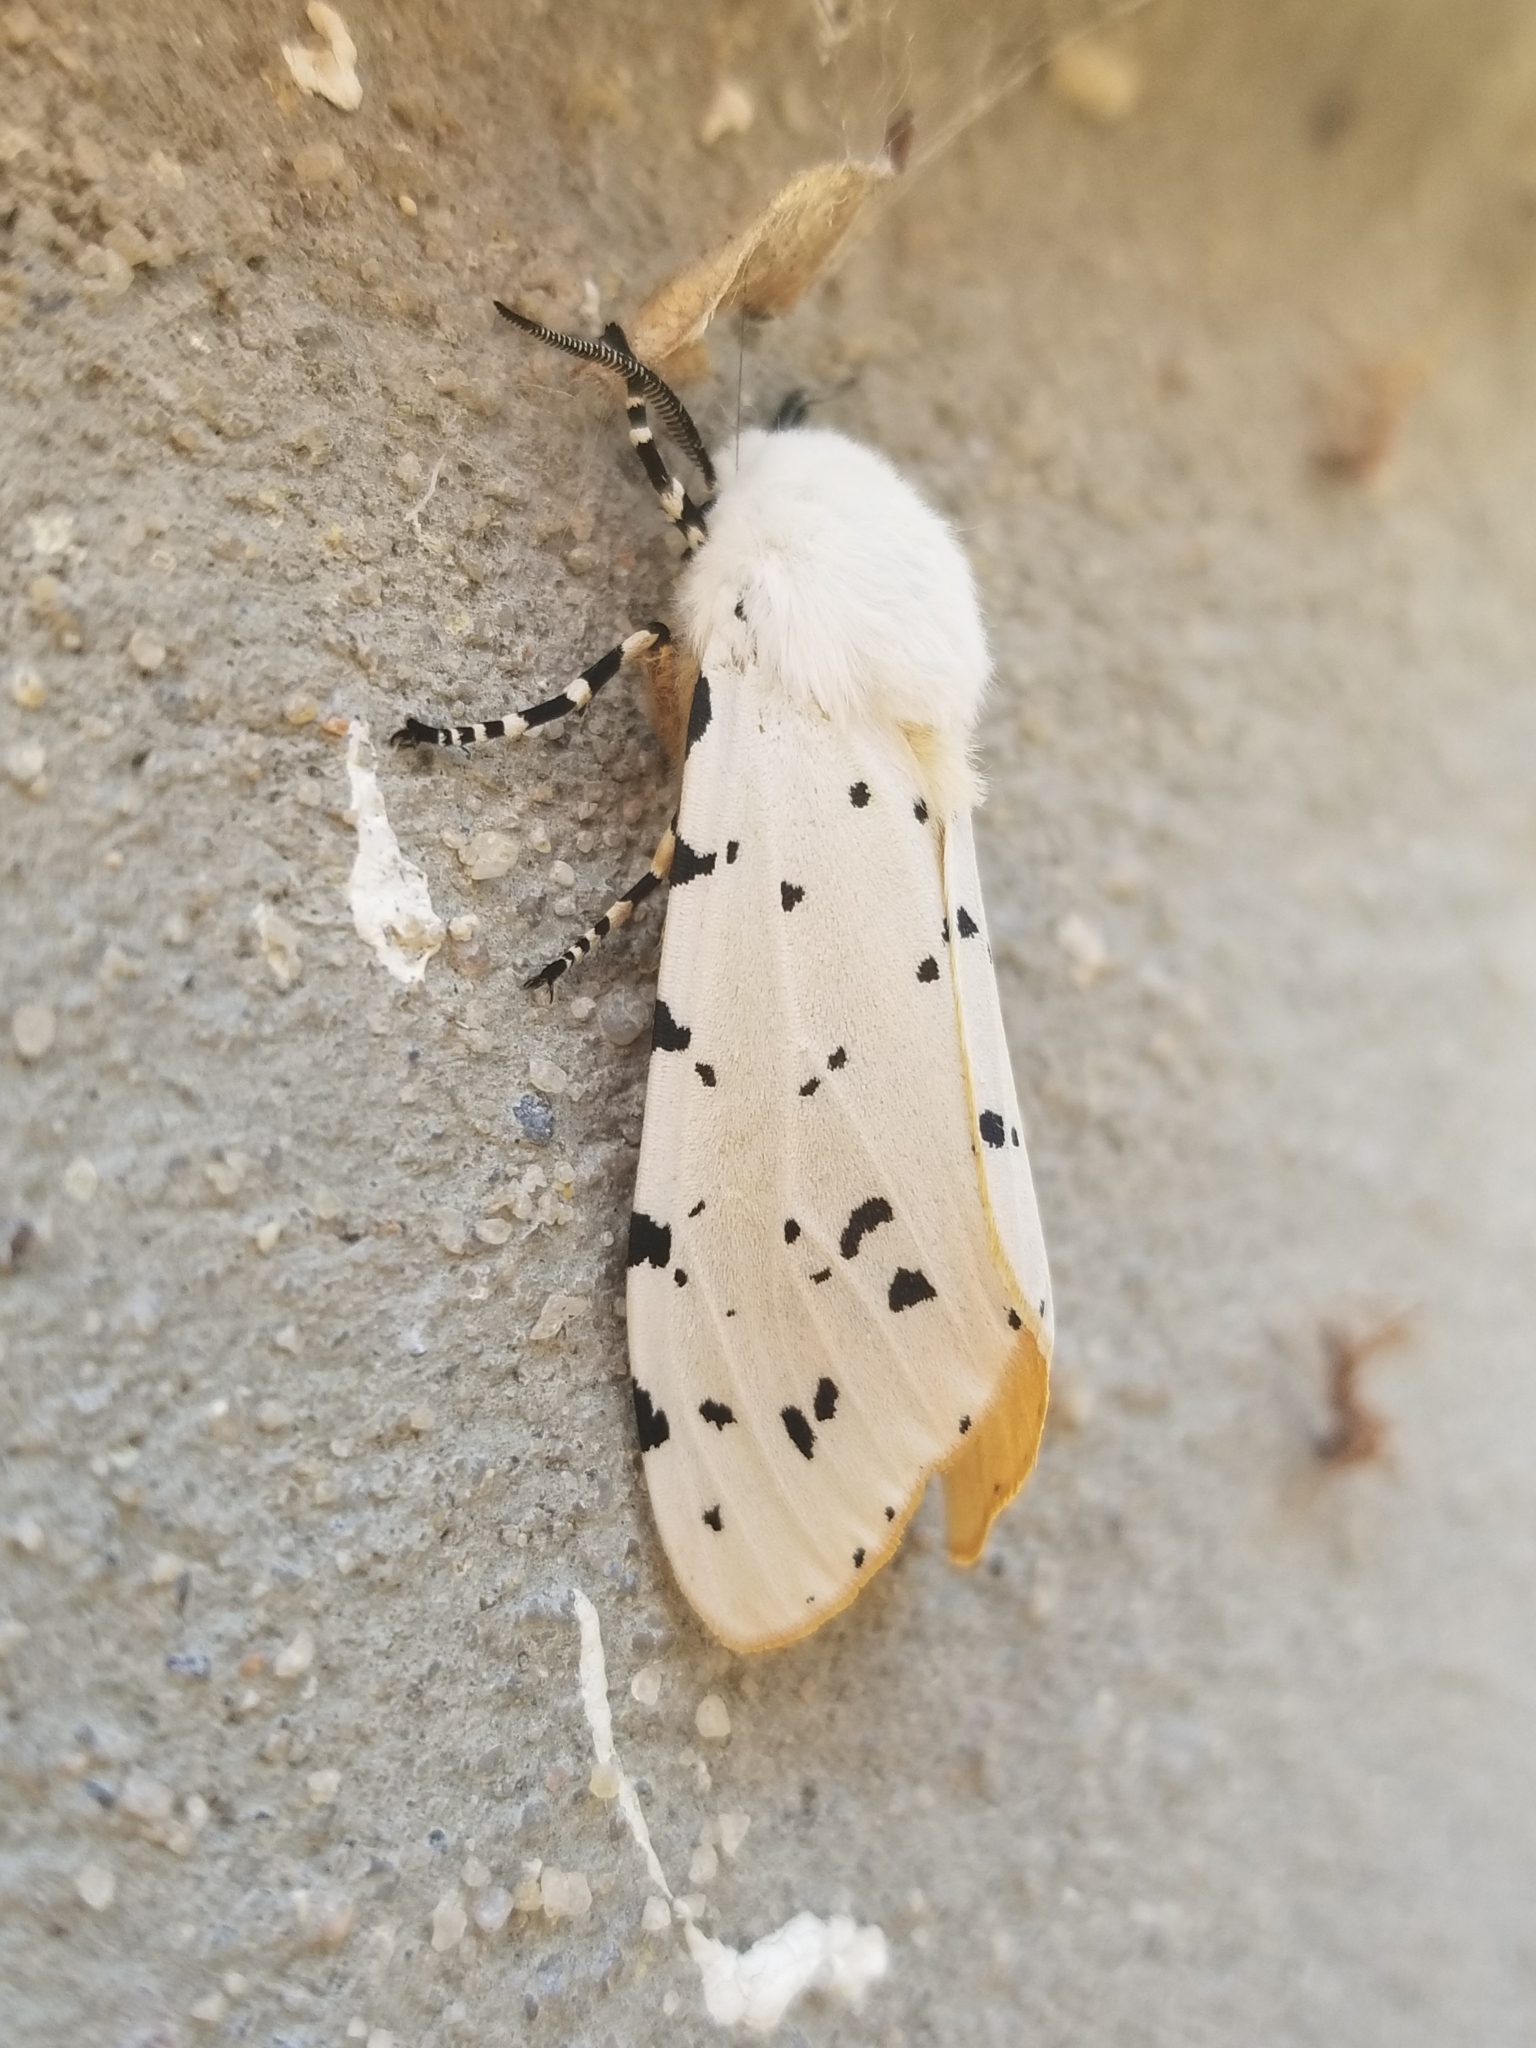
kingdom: Animalia
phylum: Arthropoda
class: Insecta
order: Lepidoptera
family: Erebidae
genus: Estigmene
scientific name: Estigmene acrea
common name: Salt marsh moth
